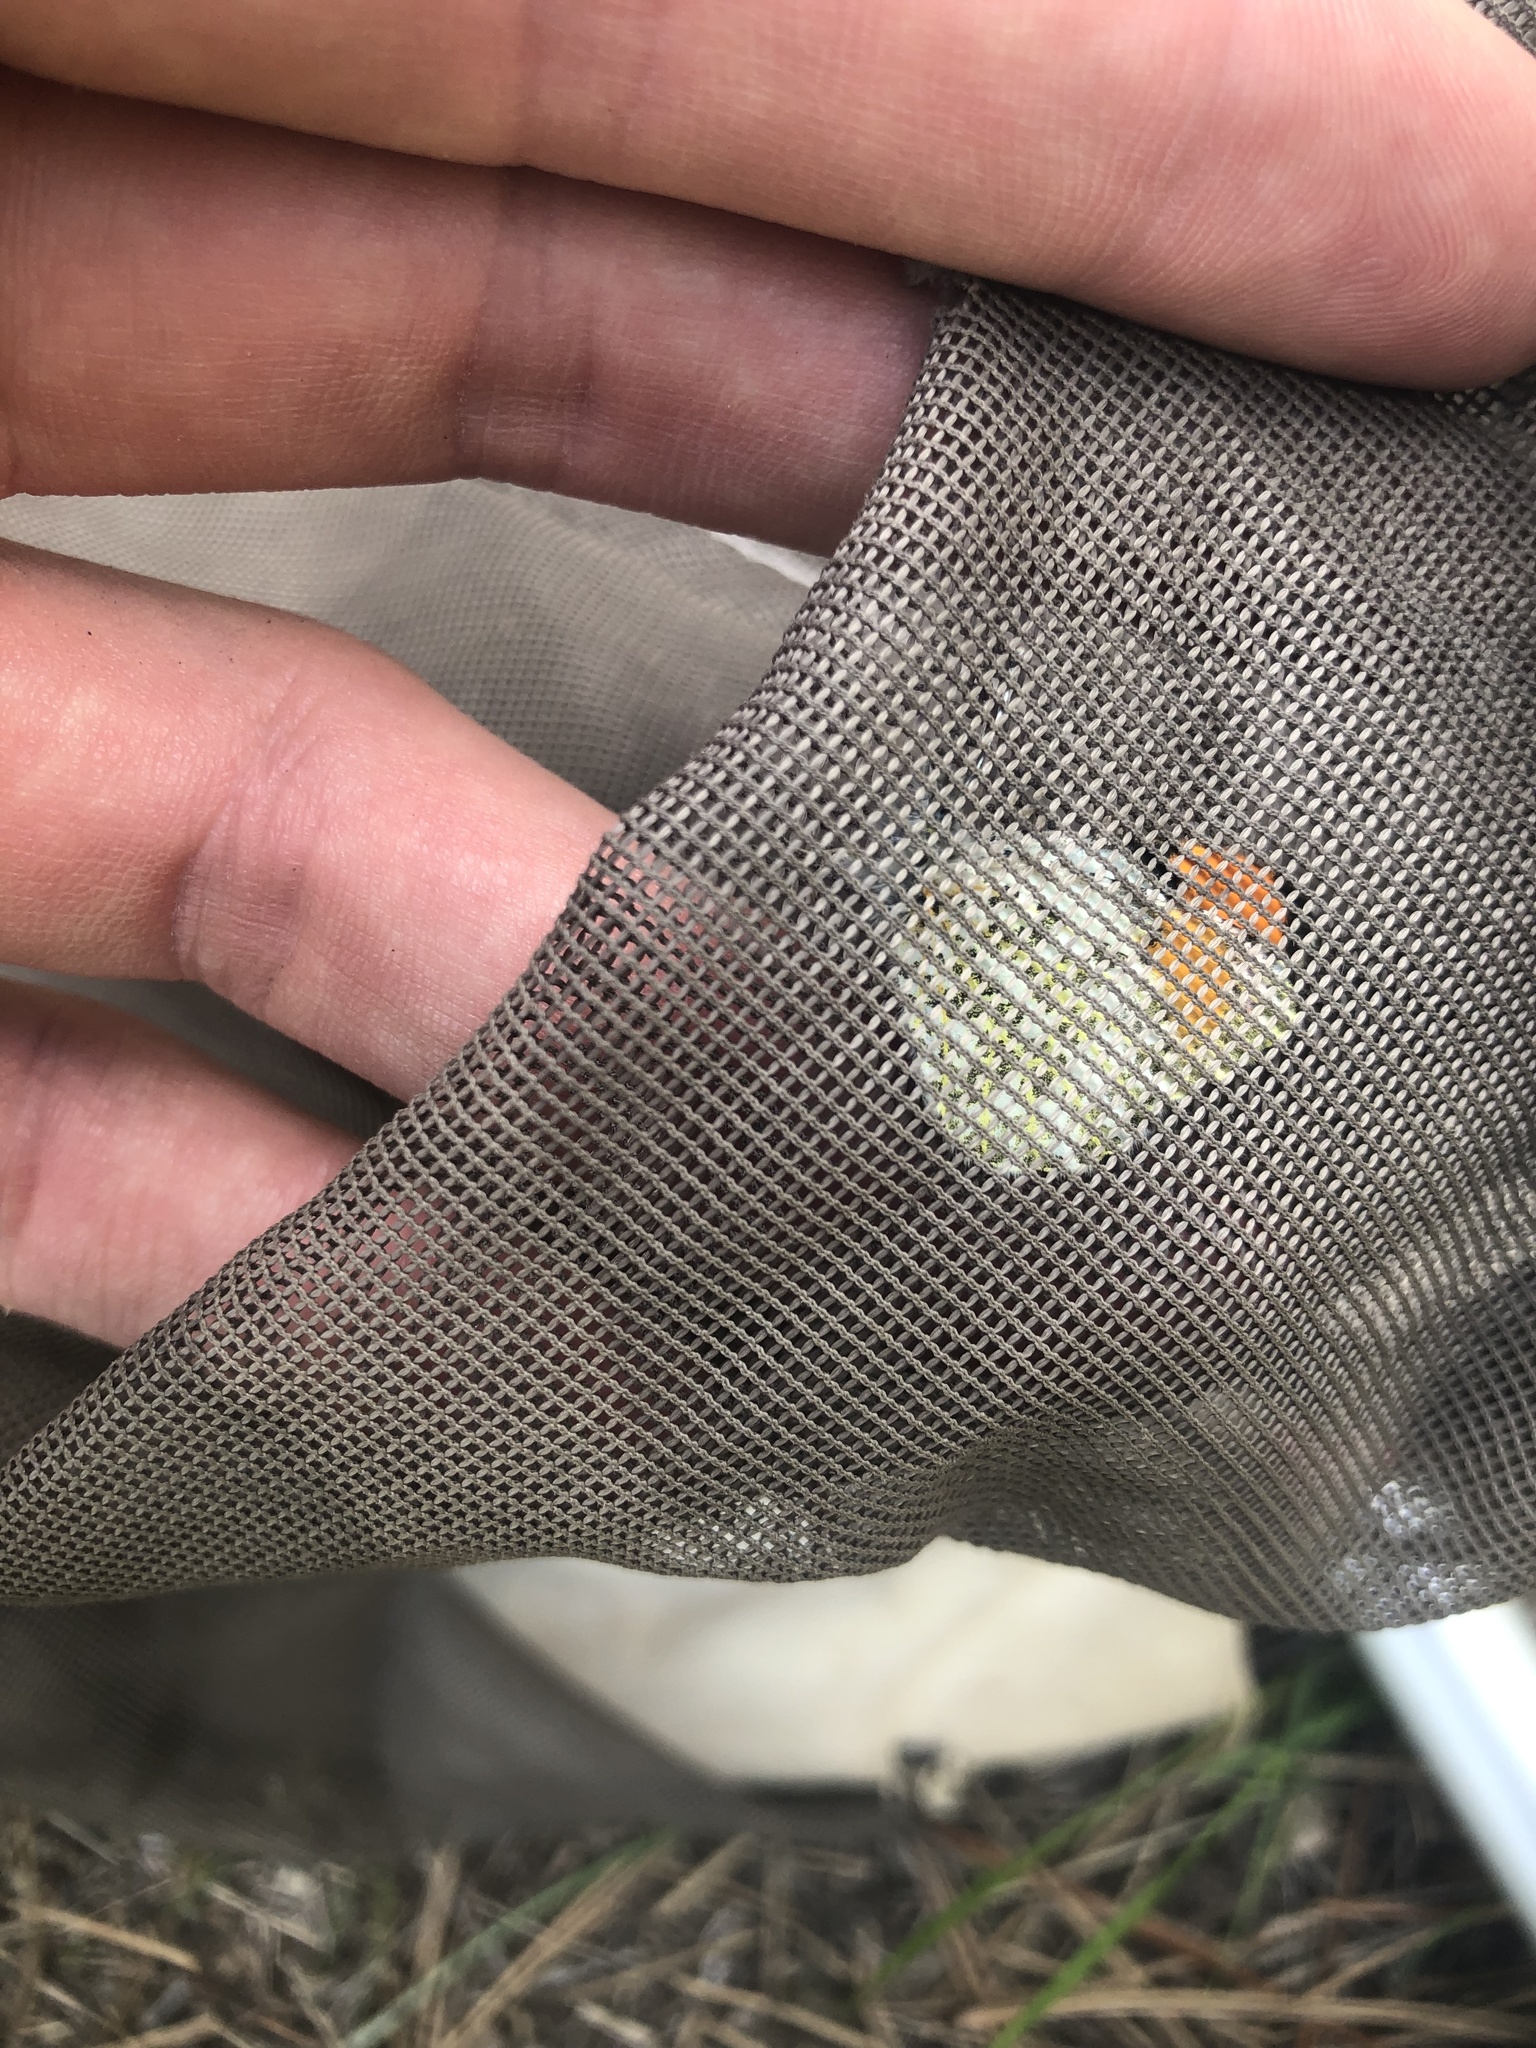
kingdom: Animalia
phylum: Arthropoda
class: Insecta
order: Lepidoptera
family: Pieridae
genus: Anthocharis
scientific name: Anthocharis julia
